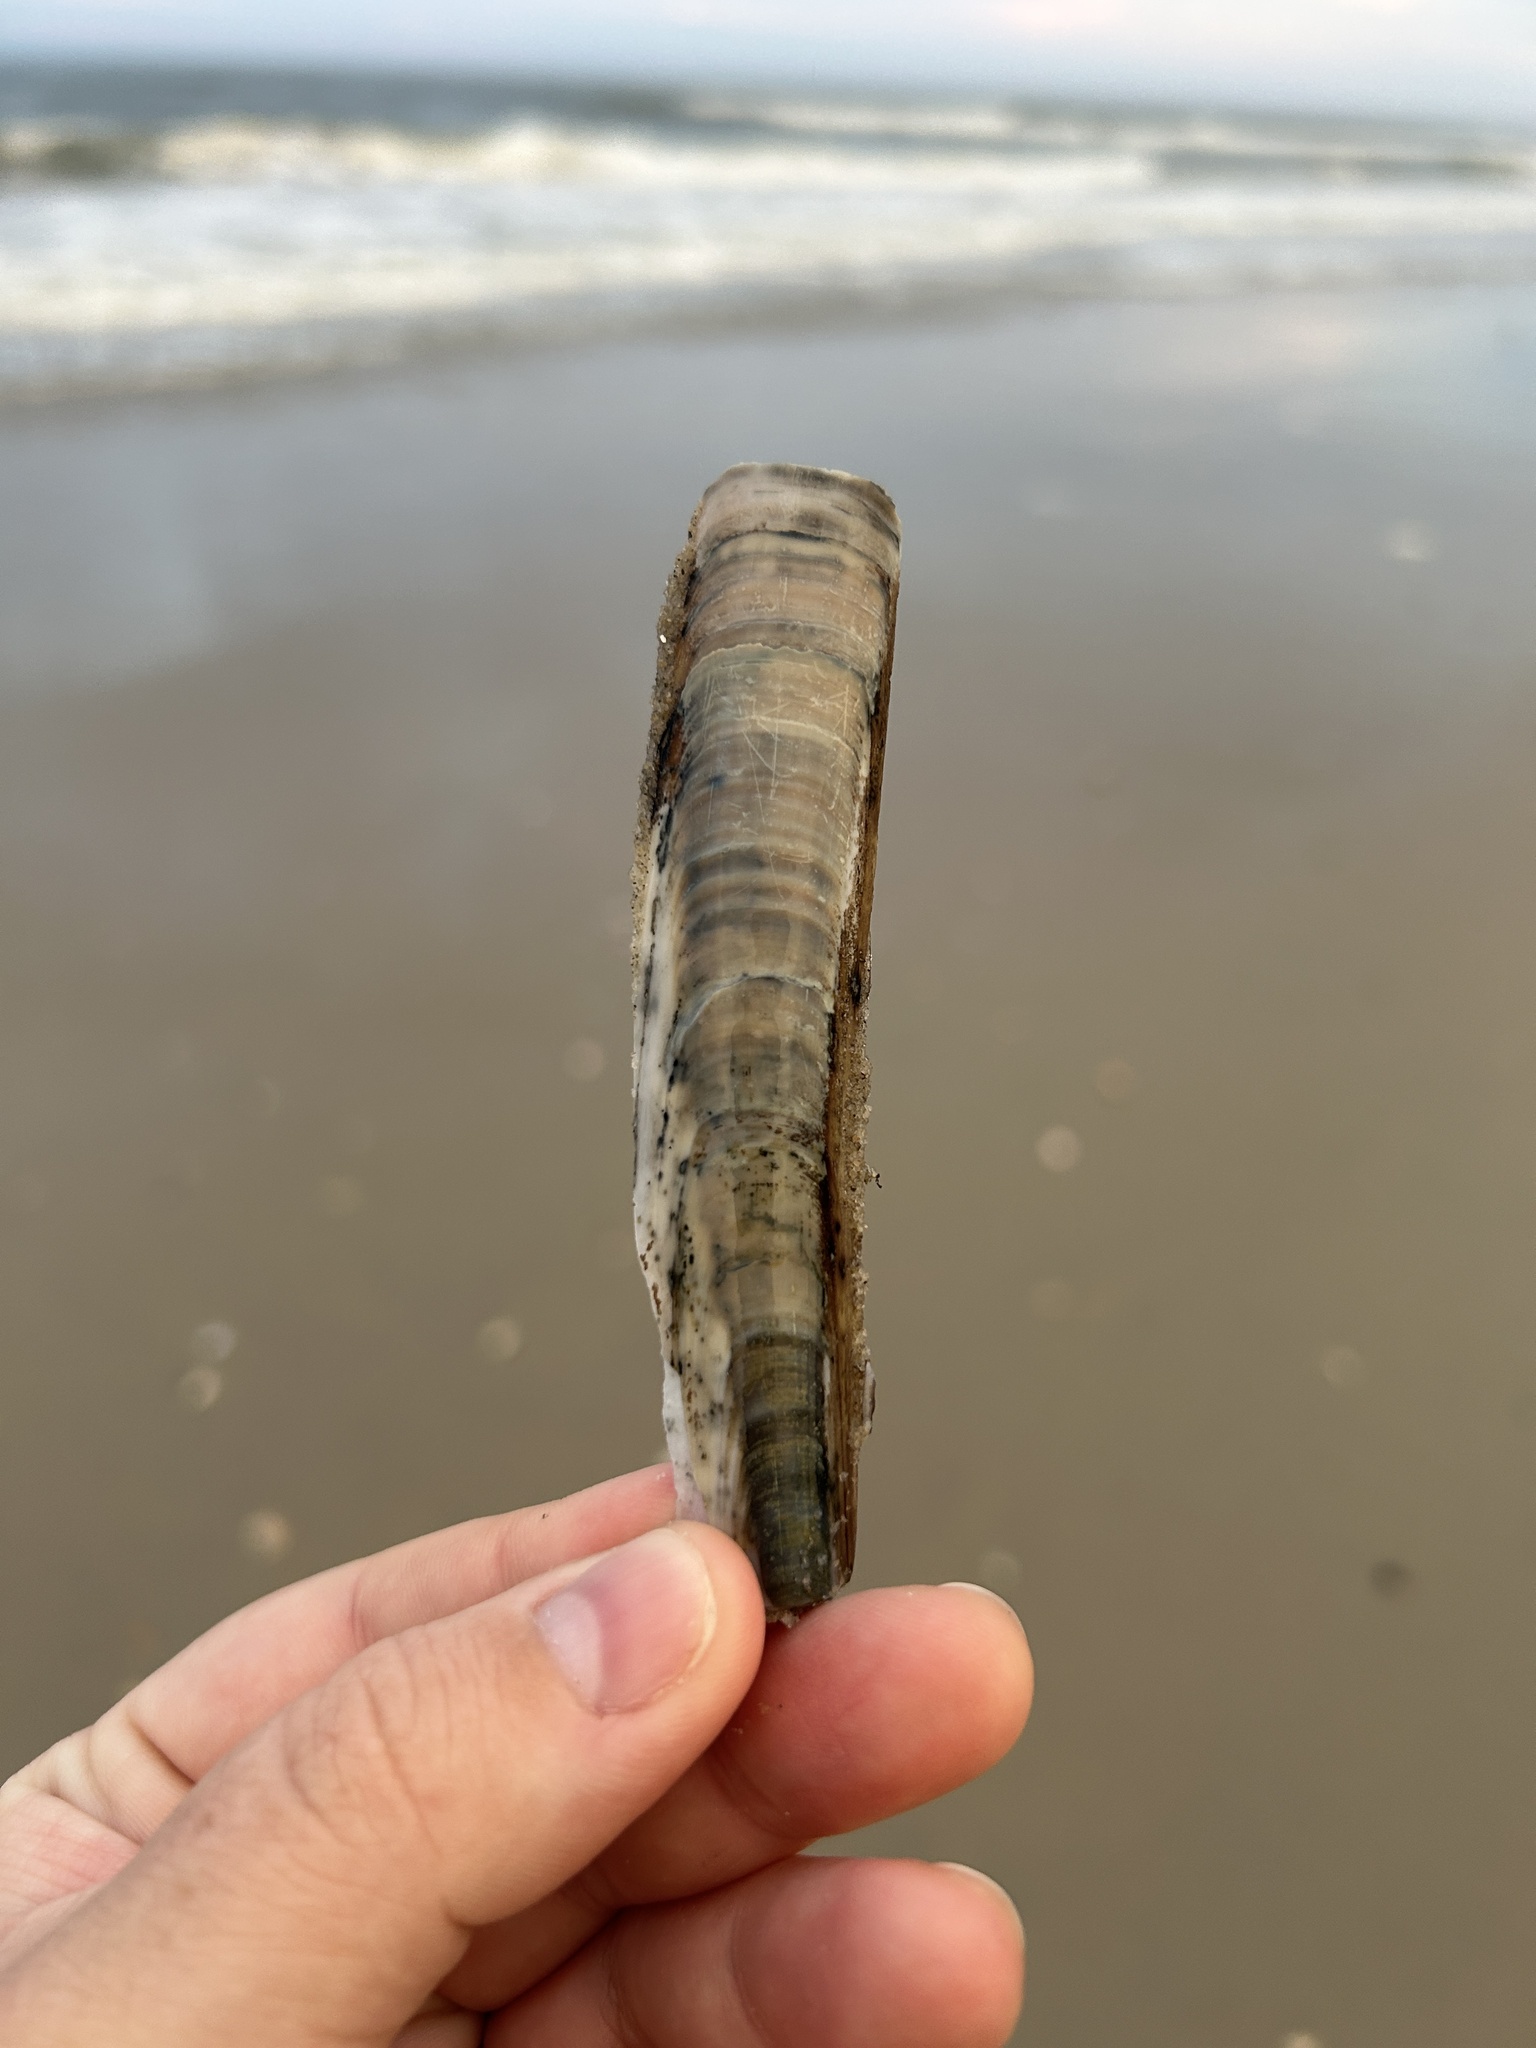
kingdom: Animalia
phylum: Mollusca
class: Bivalvia
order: Adapedonta
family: Pharidae
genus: Ensis
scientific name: Ensis leei
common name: American jack knife clam
